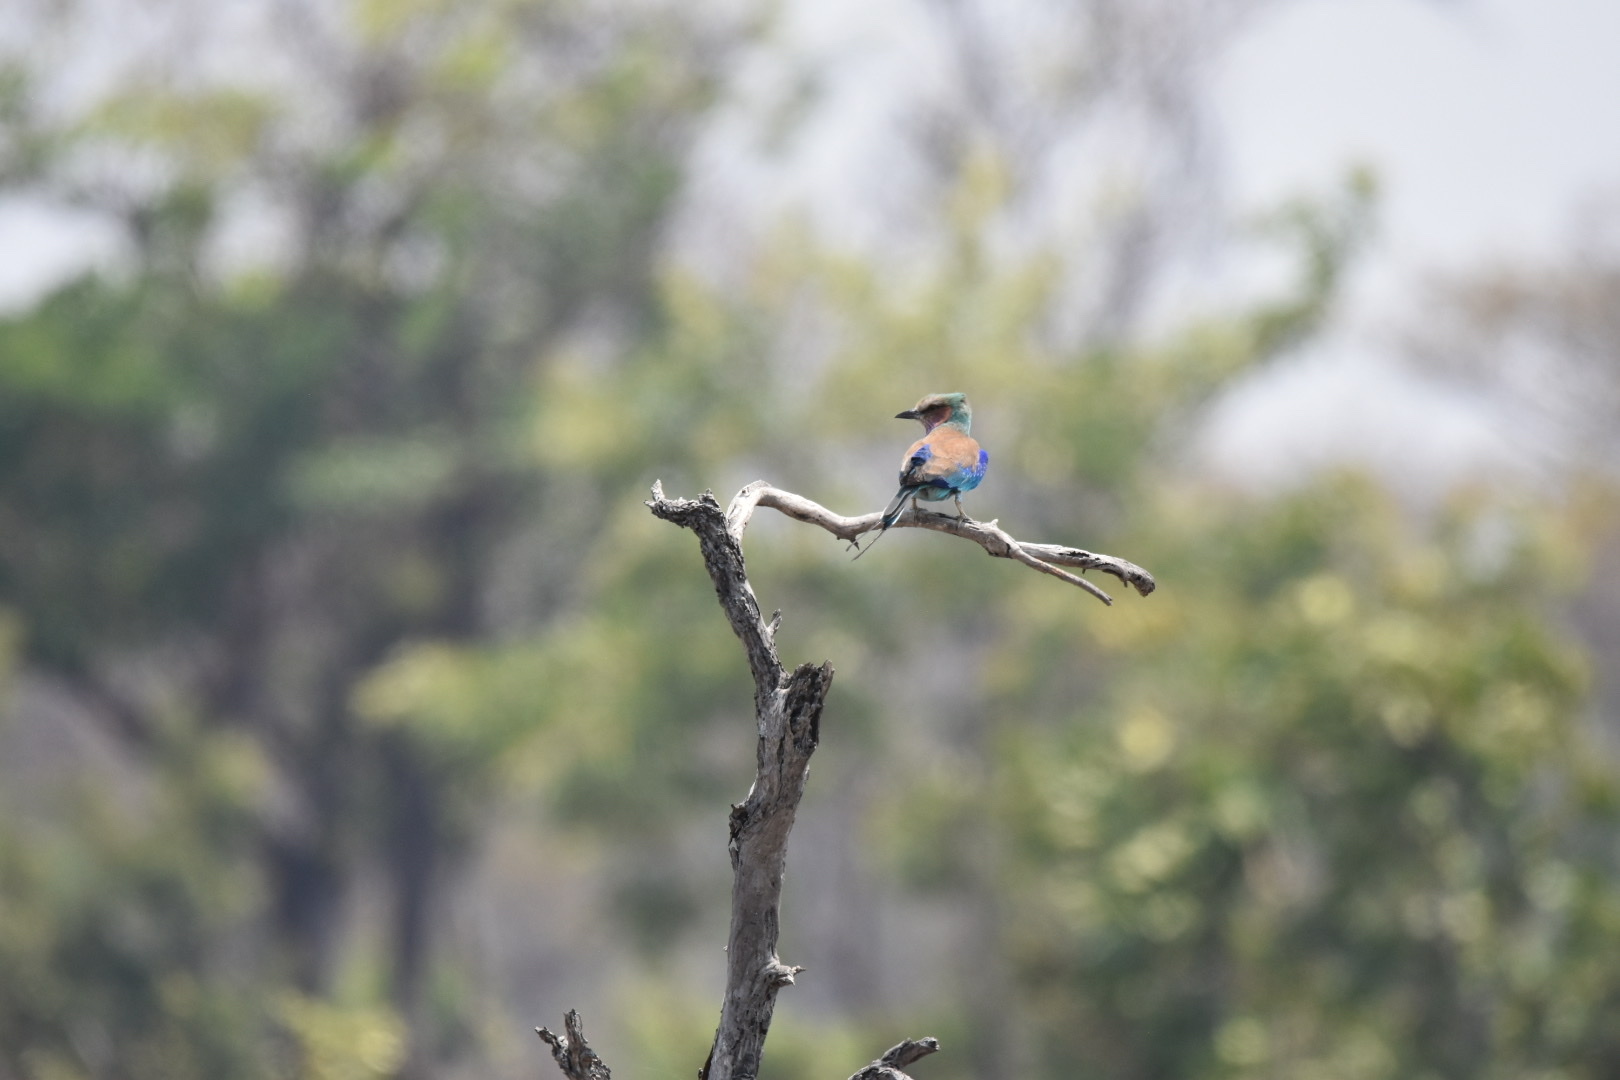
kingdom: Animalia
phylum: Chordata
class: Aves
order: Coraciiformes
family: Coraciidae
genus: Coracias
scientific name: Coracias caudatus
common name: Lilac-breasted roller
